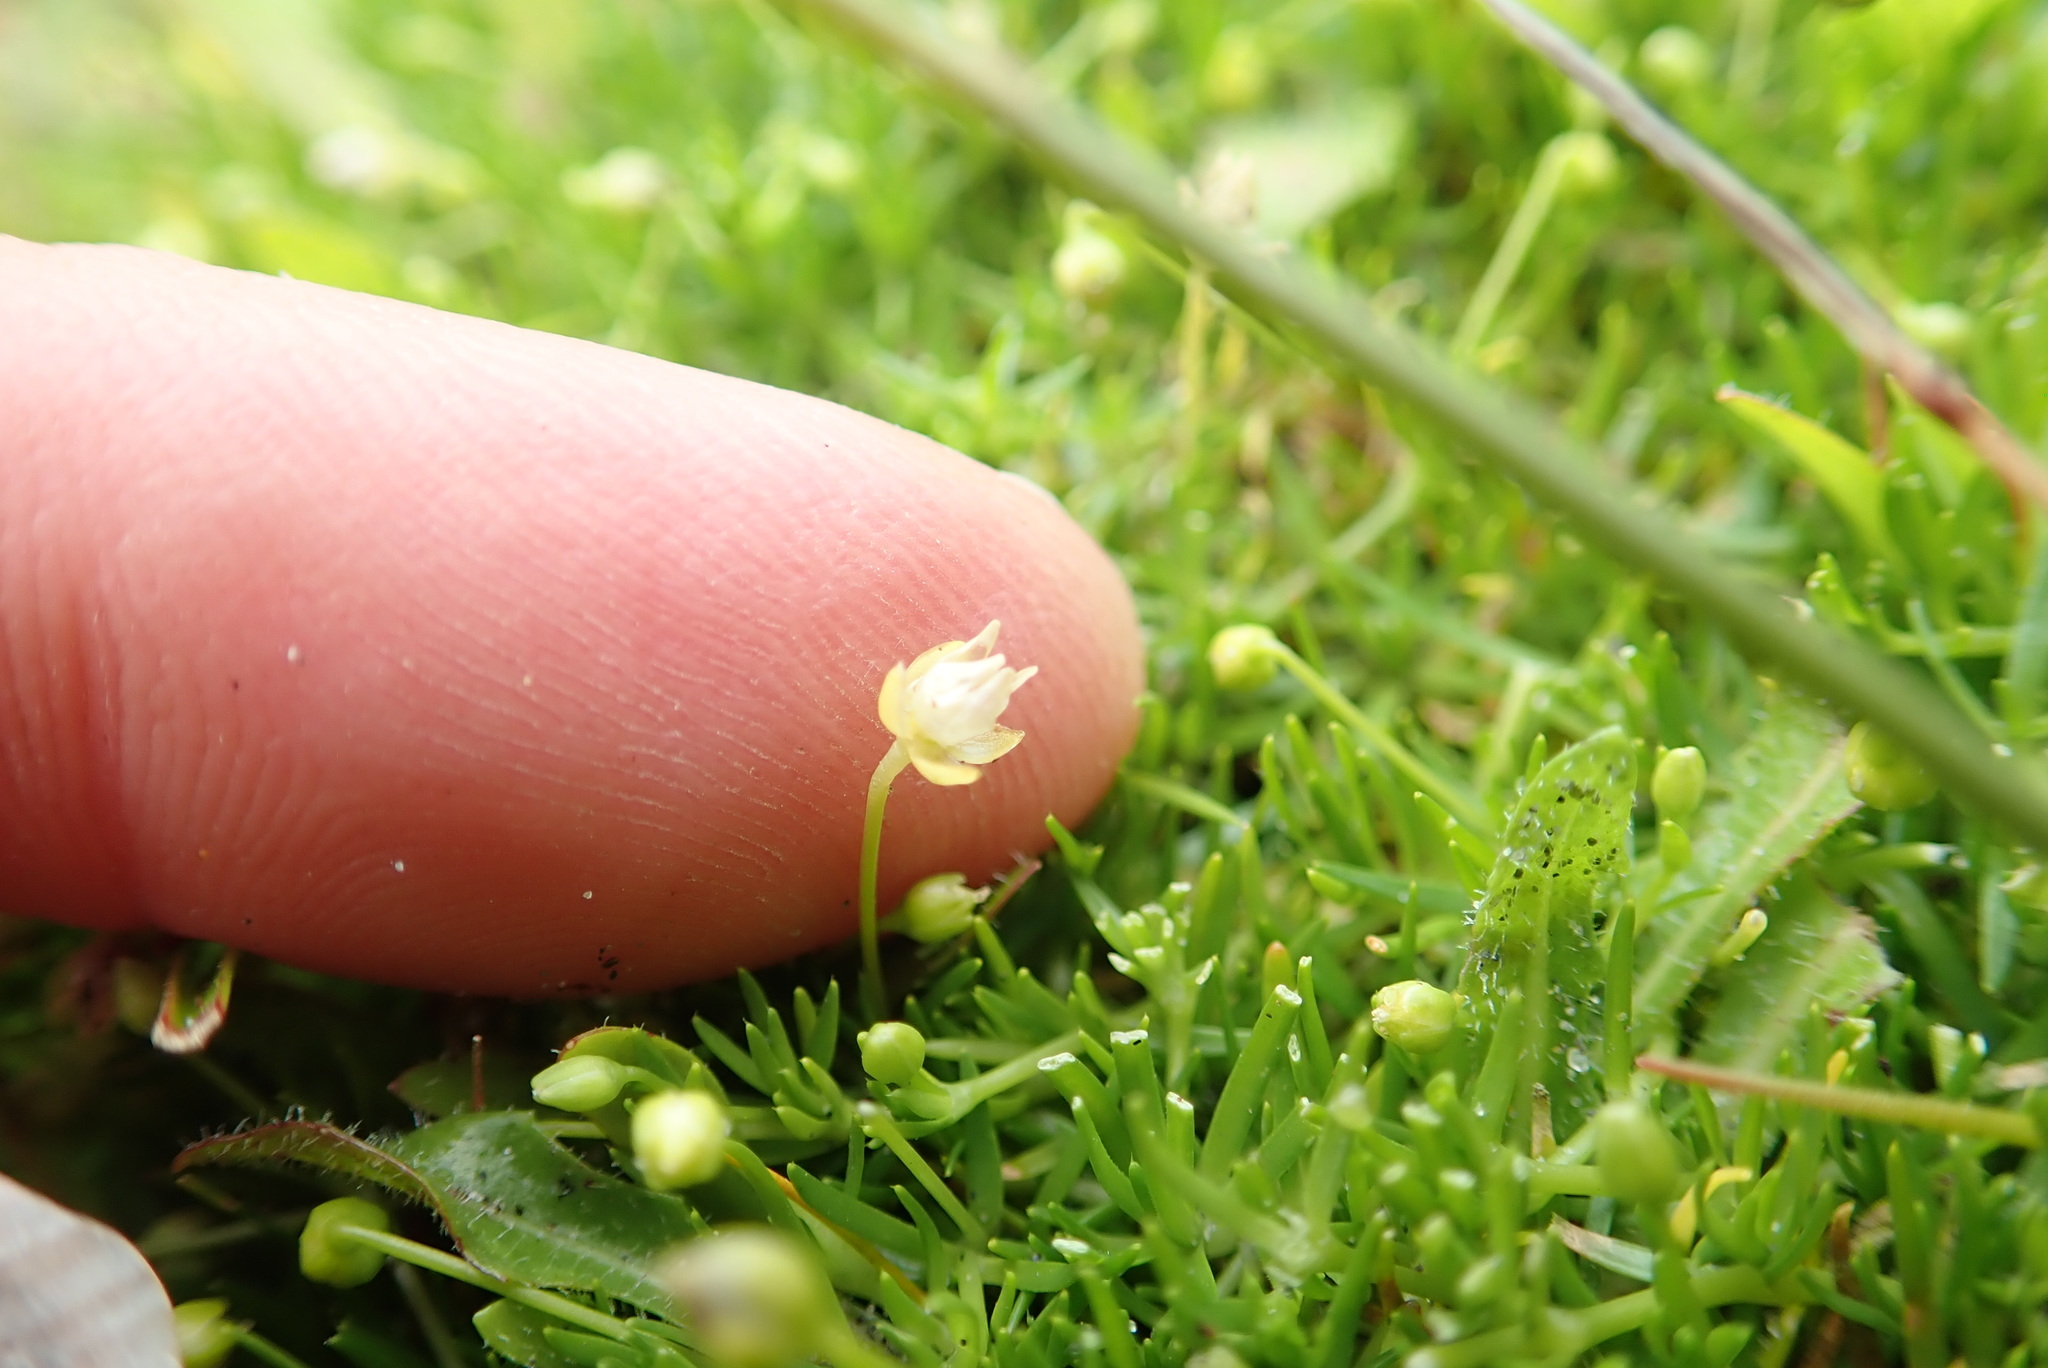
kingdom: Plantae
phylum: Tracheophyta
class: Magnoliopsida
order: Caryophyllales
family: Caryophyllaceae
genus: Sagina
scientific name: Sagina procumbens
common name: Procumbent pearlwort
